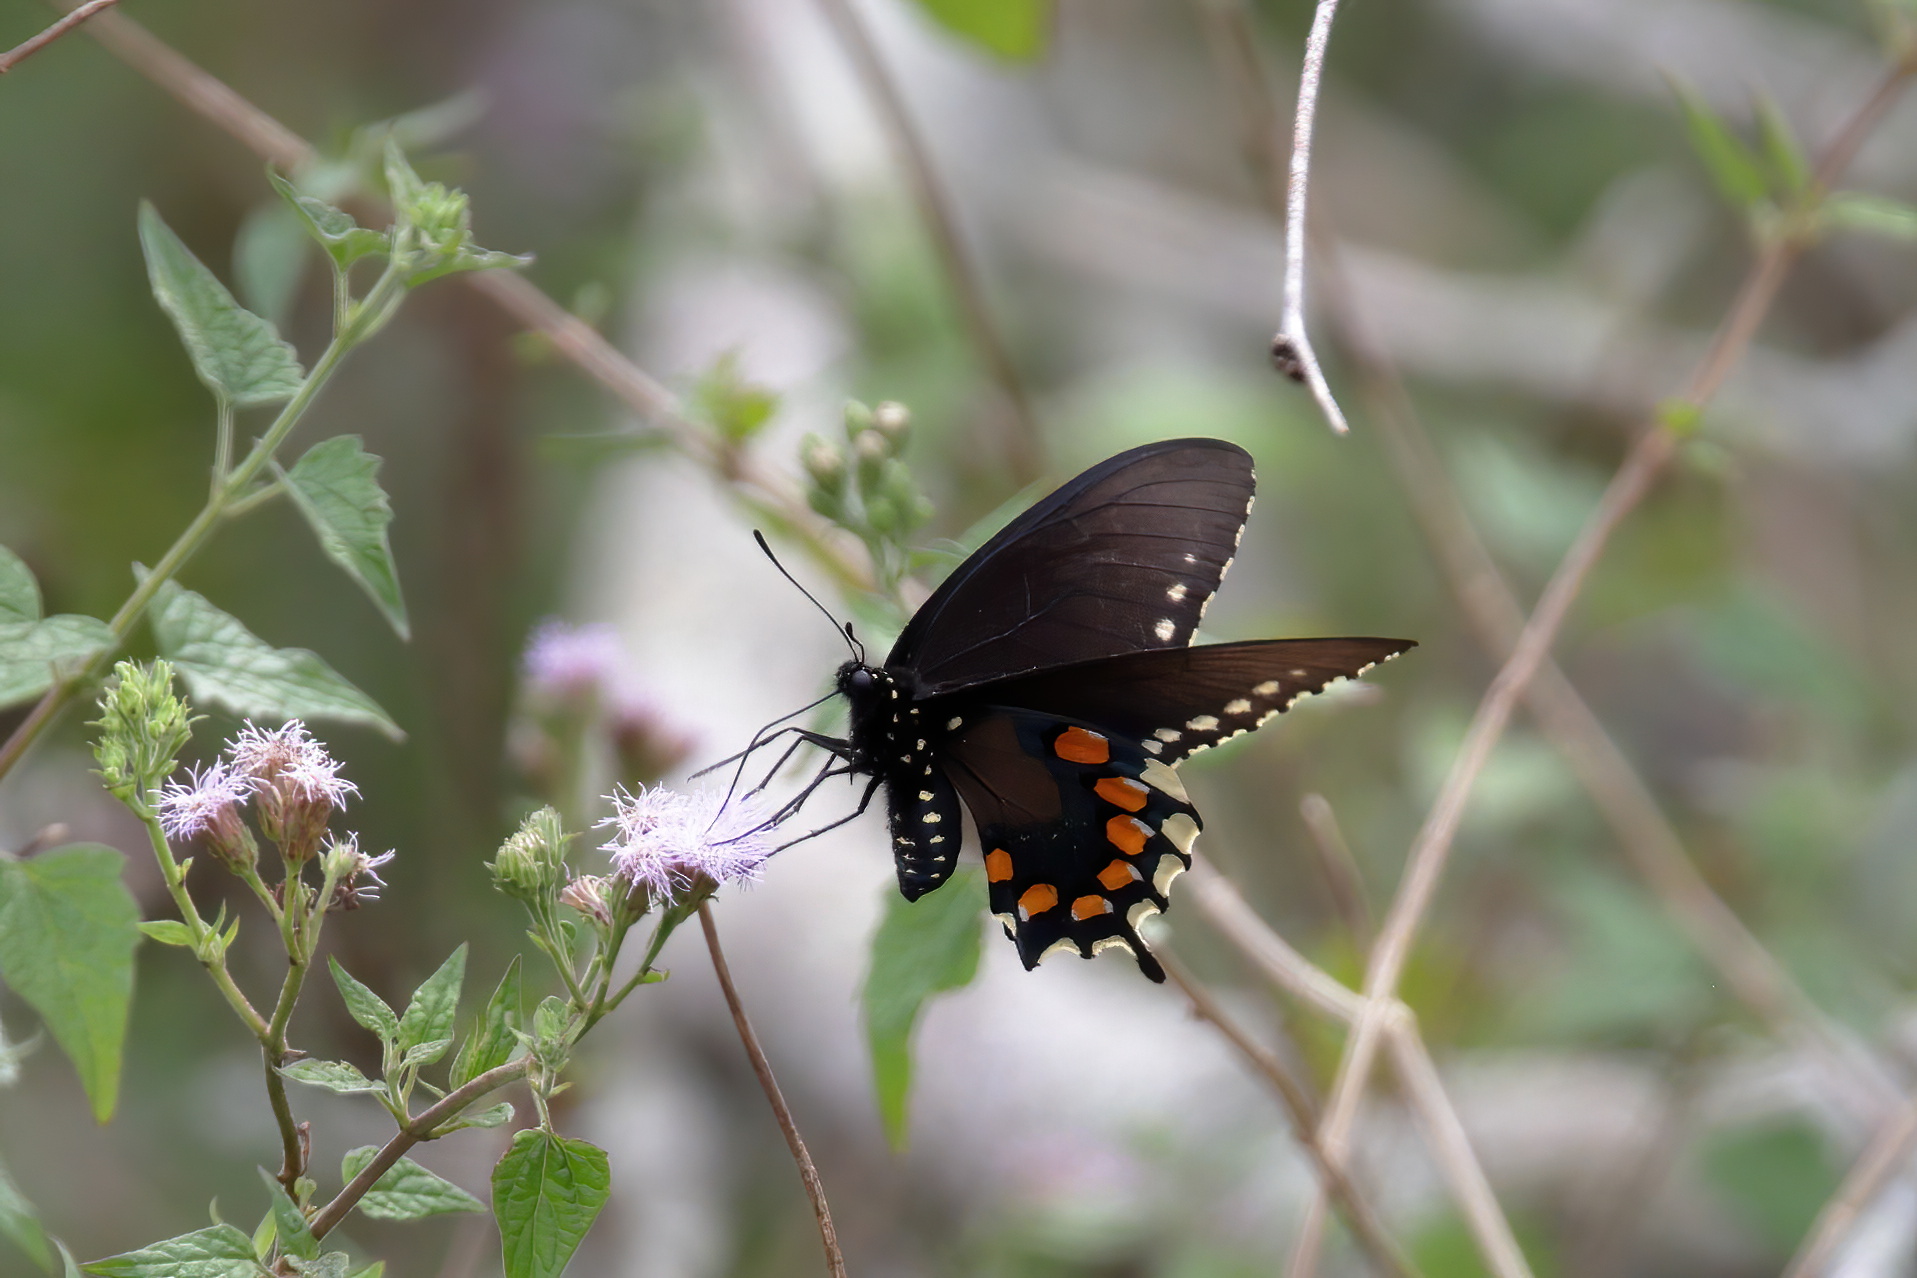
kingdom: Animalia
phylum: Arthropoda
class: Insecta
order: Lepidoptera
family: Papilionidae
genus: Battus
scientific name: Battus philenor
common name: Pipevine swallowtail
